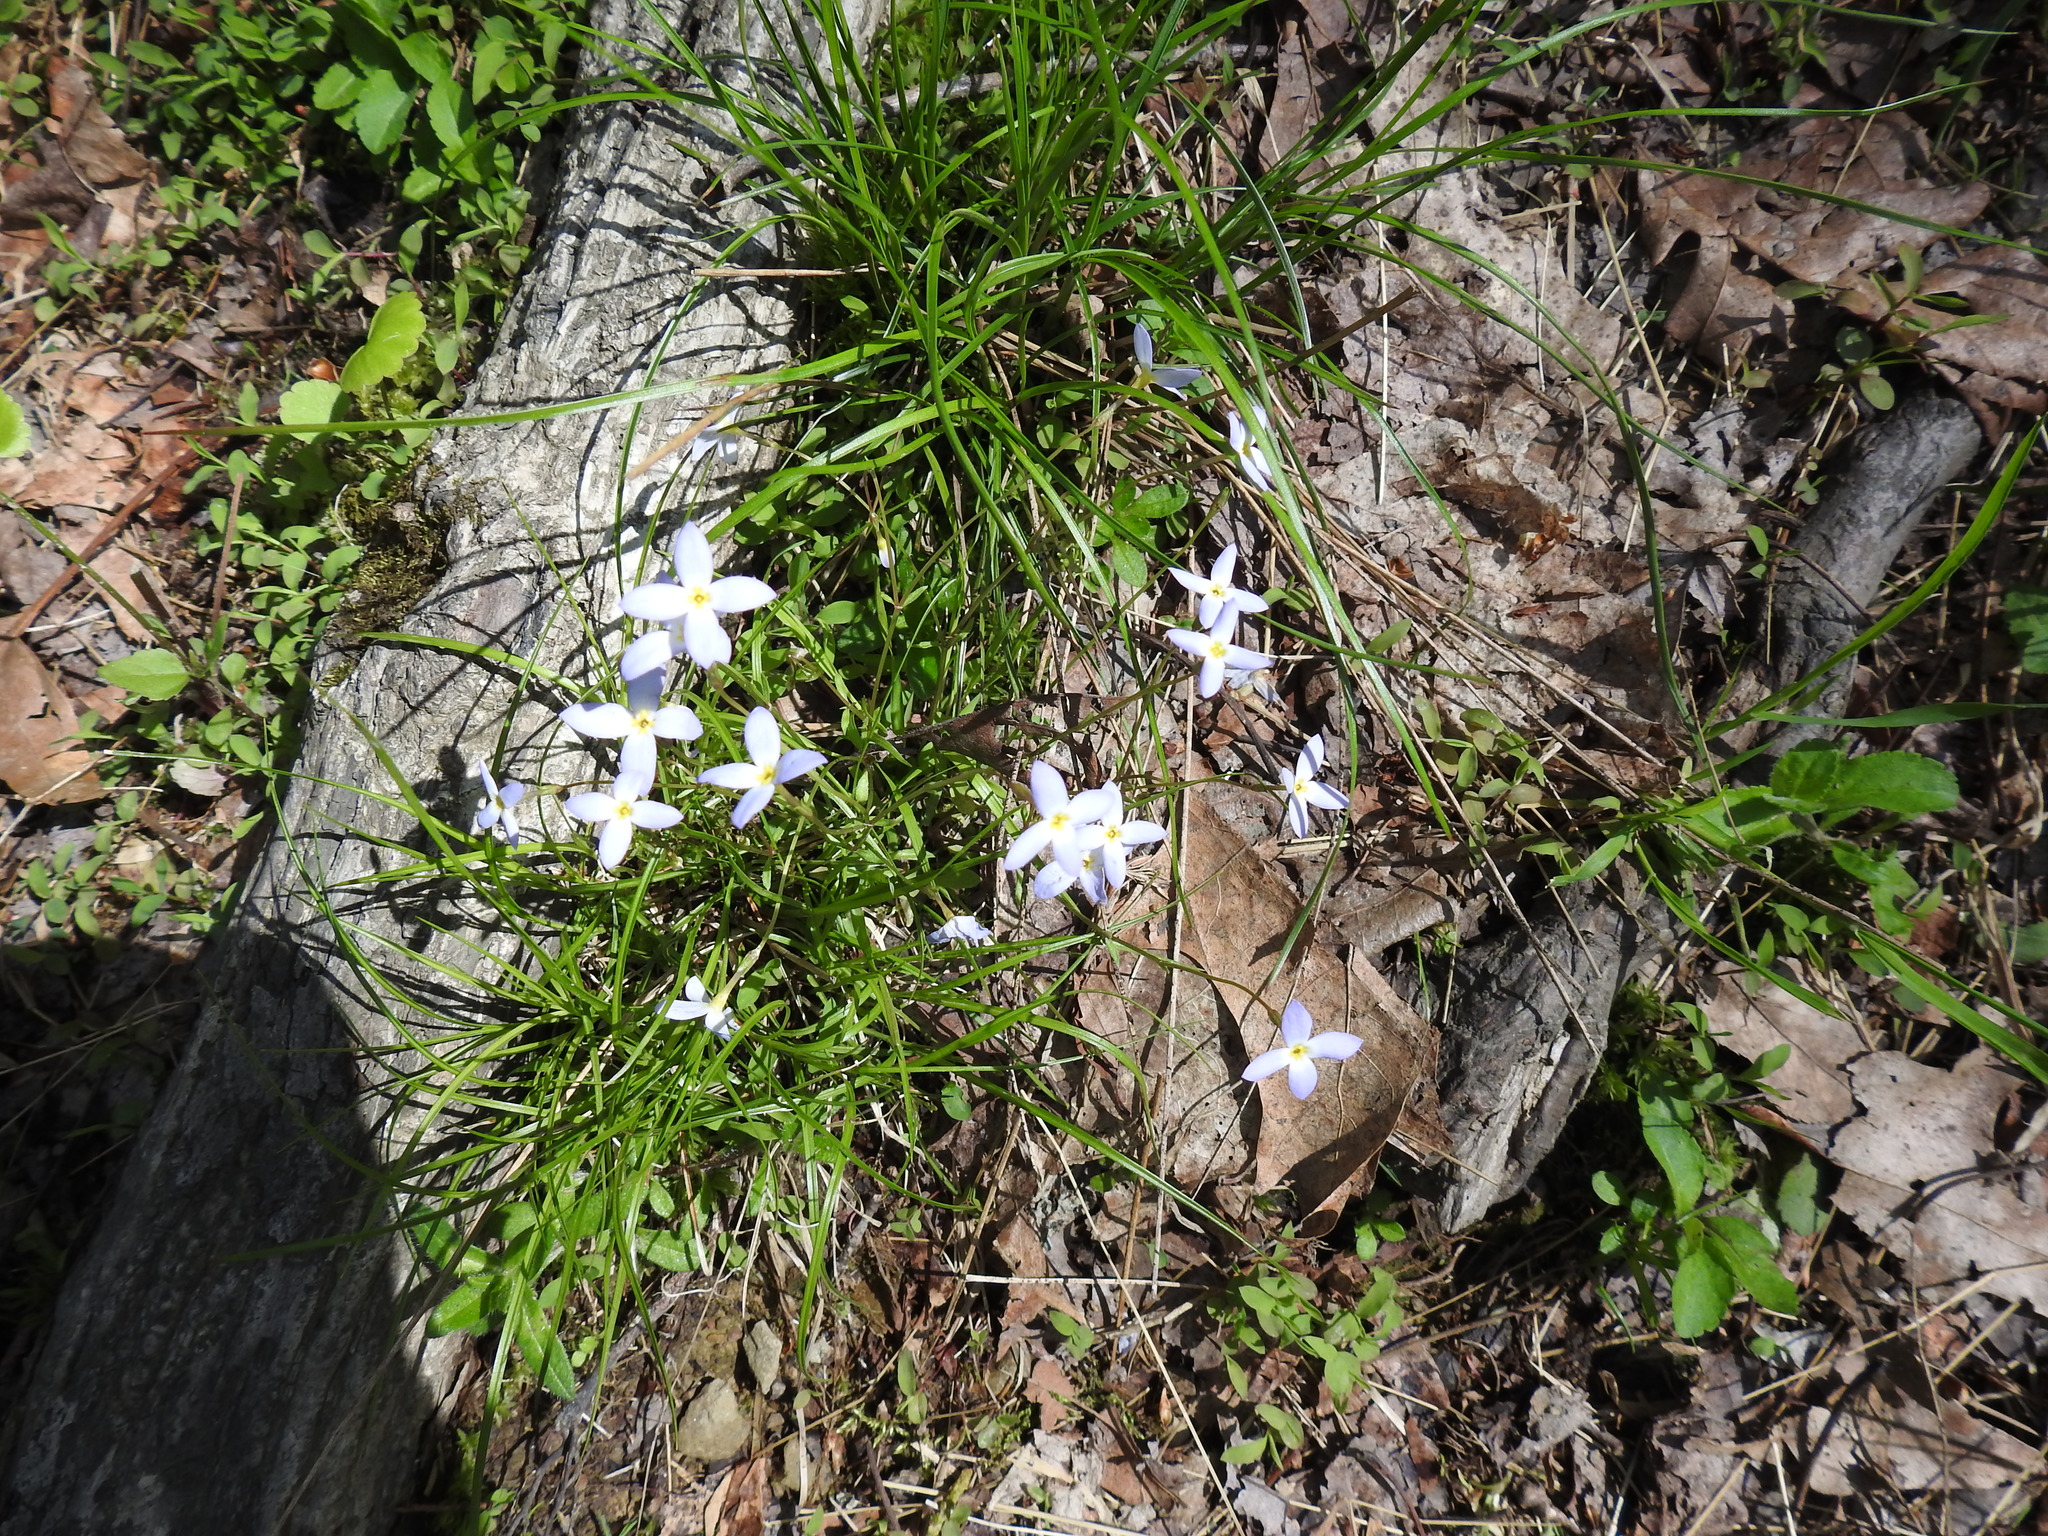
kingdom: Plantae
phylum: Tracheophyta
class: Magnoliopsida
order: Gentianales
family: Rubiaceae
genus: Houstonia
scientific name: Houstonia caerulea
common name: Bluets
